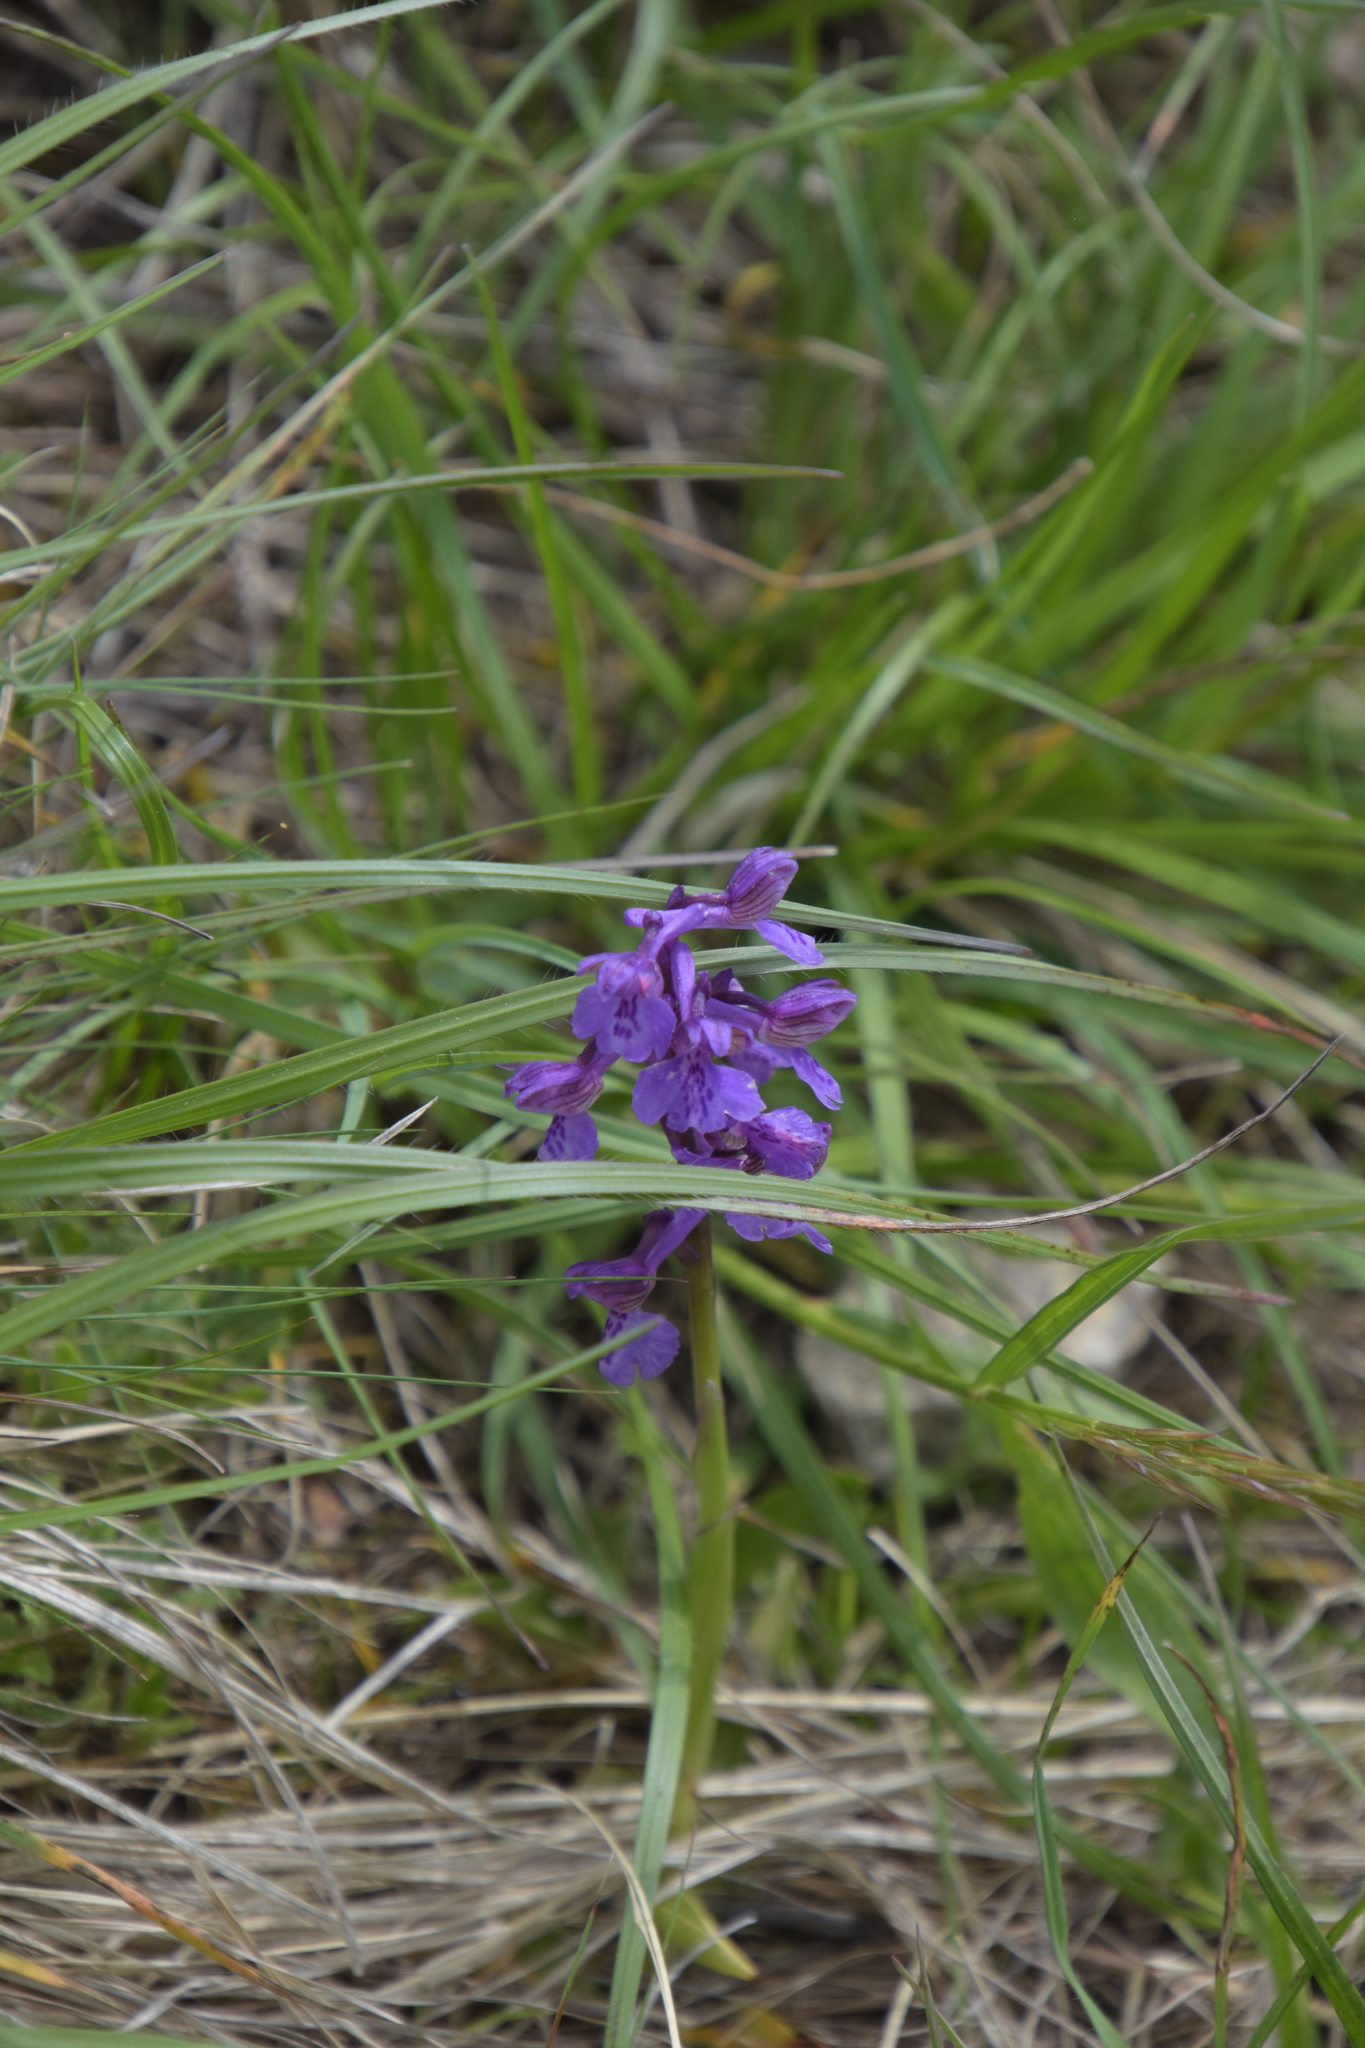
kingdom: Plantae
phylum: Tracheophyta
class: Liliopsida
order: Asparagales
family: Orchidaceae
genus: Anacamptis
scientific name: Anacamptis morio
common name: Green-winged orchid
